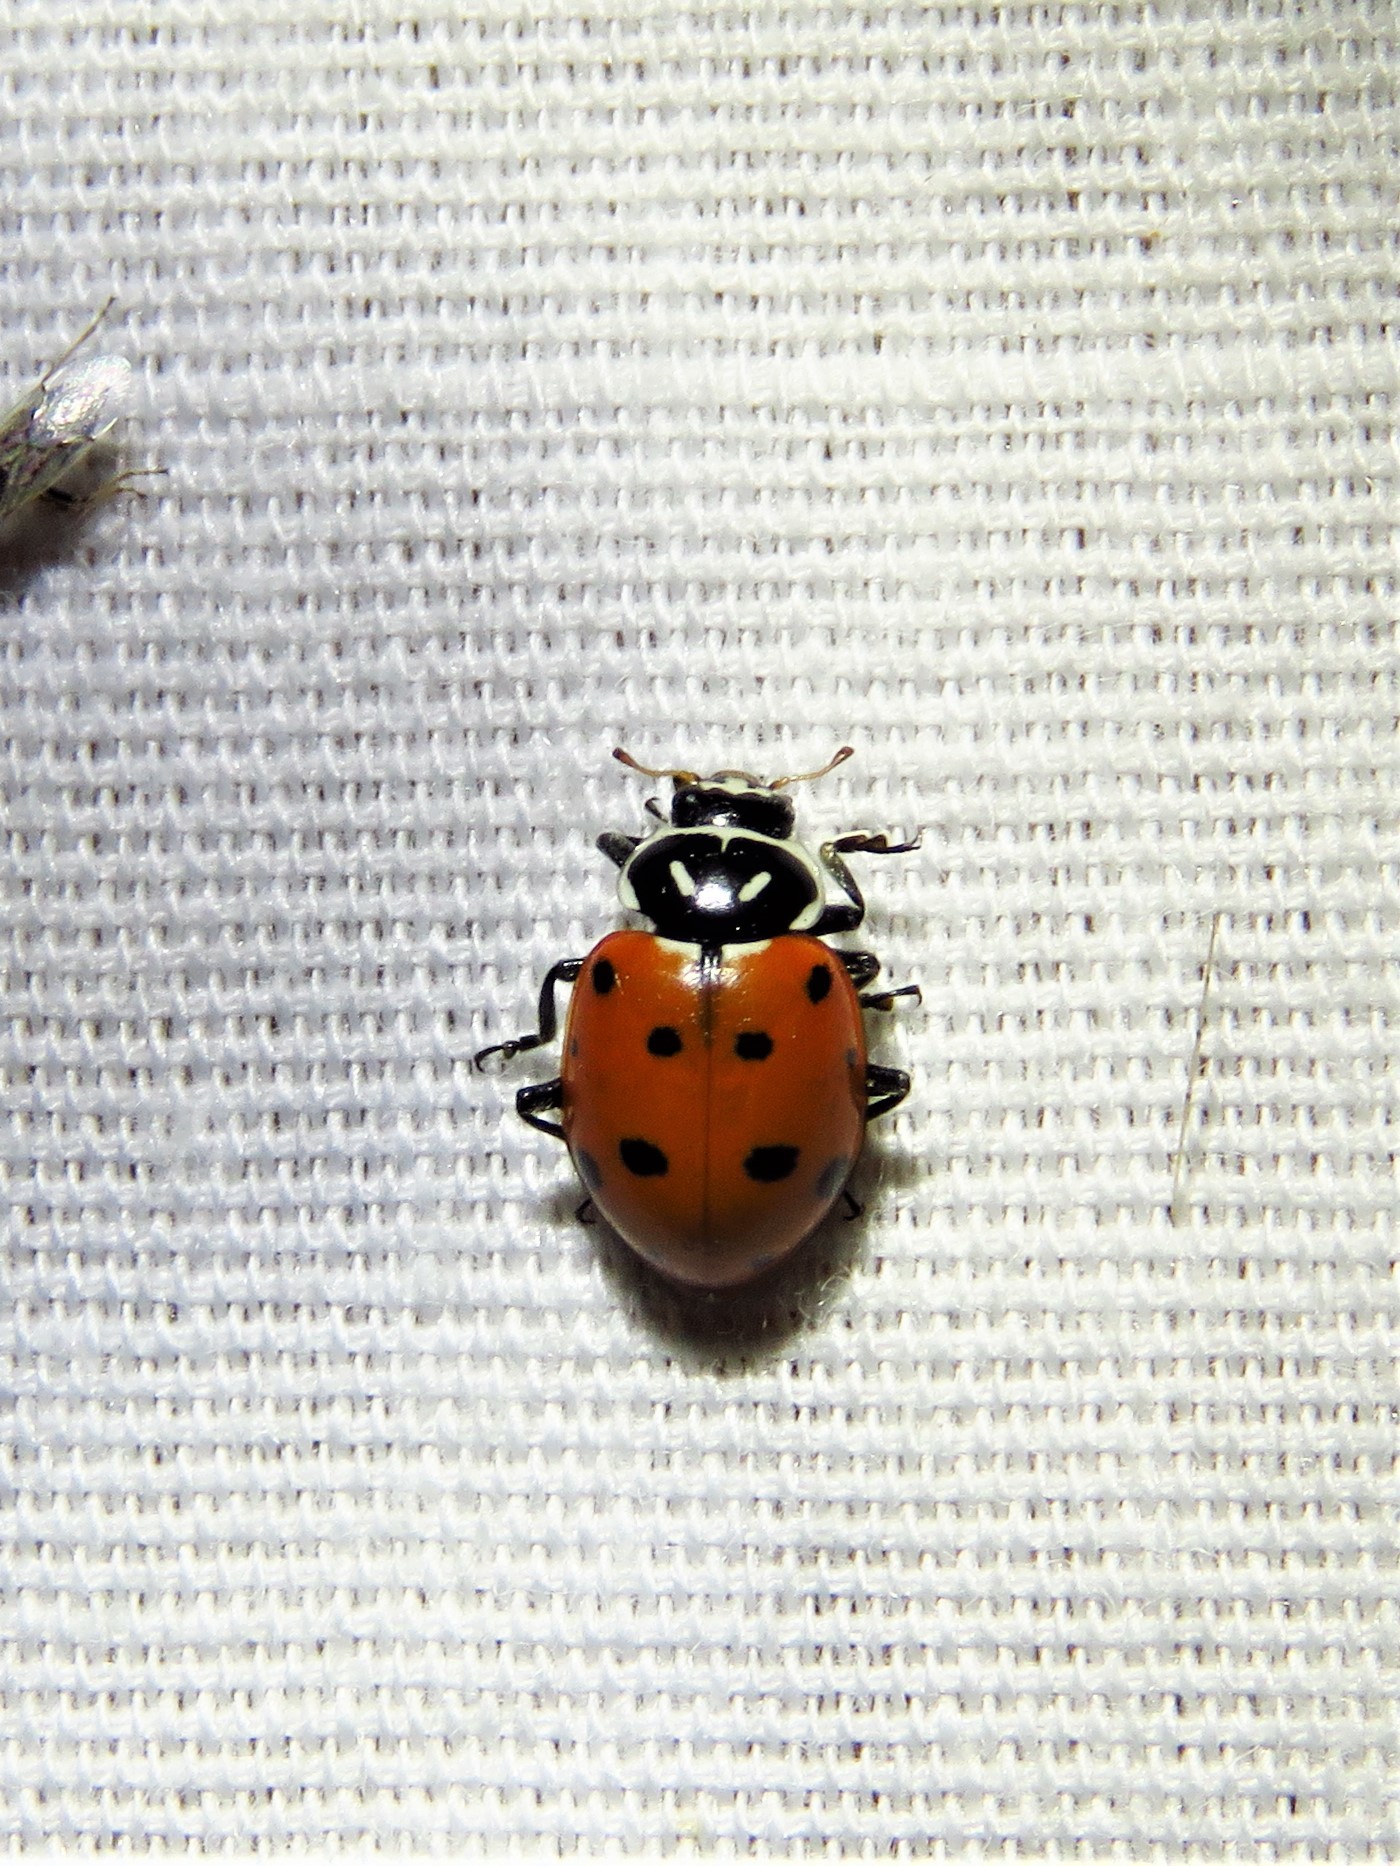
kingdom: Animalia
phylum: Arthropoda
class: Insecta
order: Coleoptera
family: Coccinellidae
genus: Hippodamia
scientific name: Hippodamia convergens
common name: Convergent lady beetle
